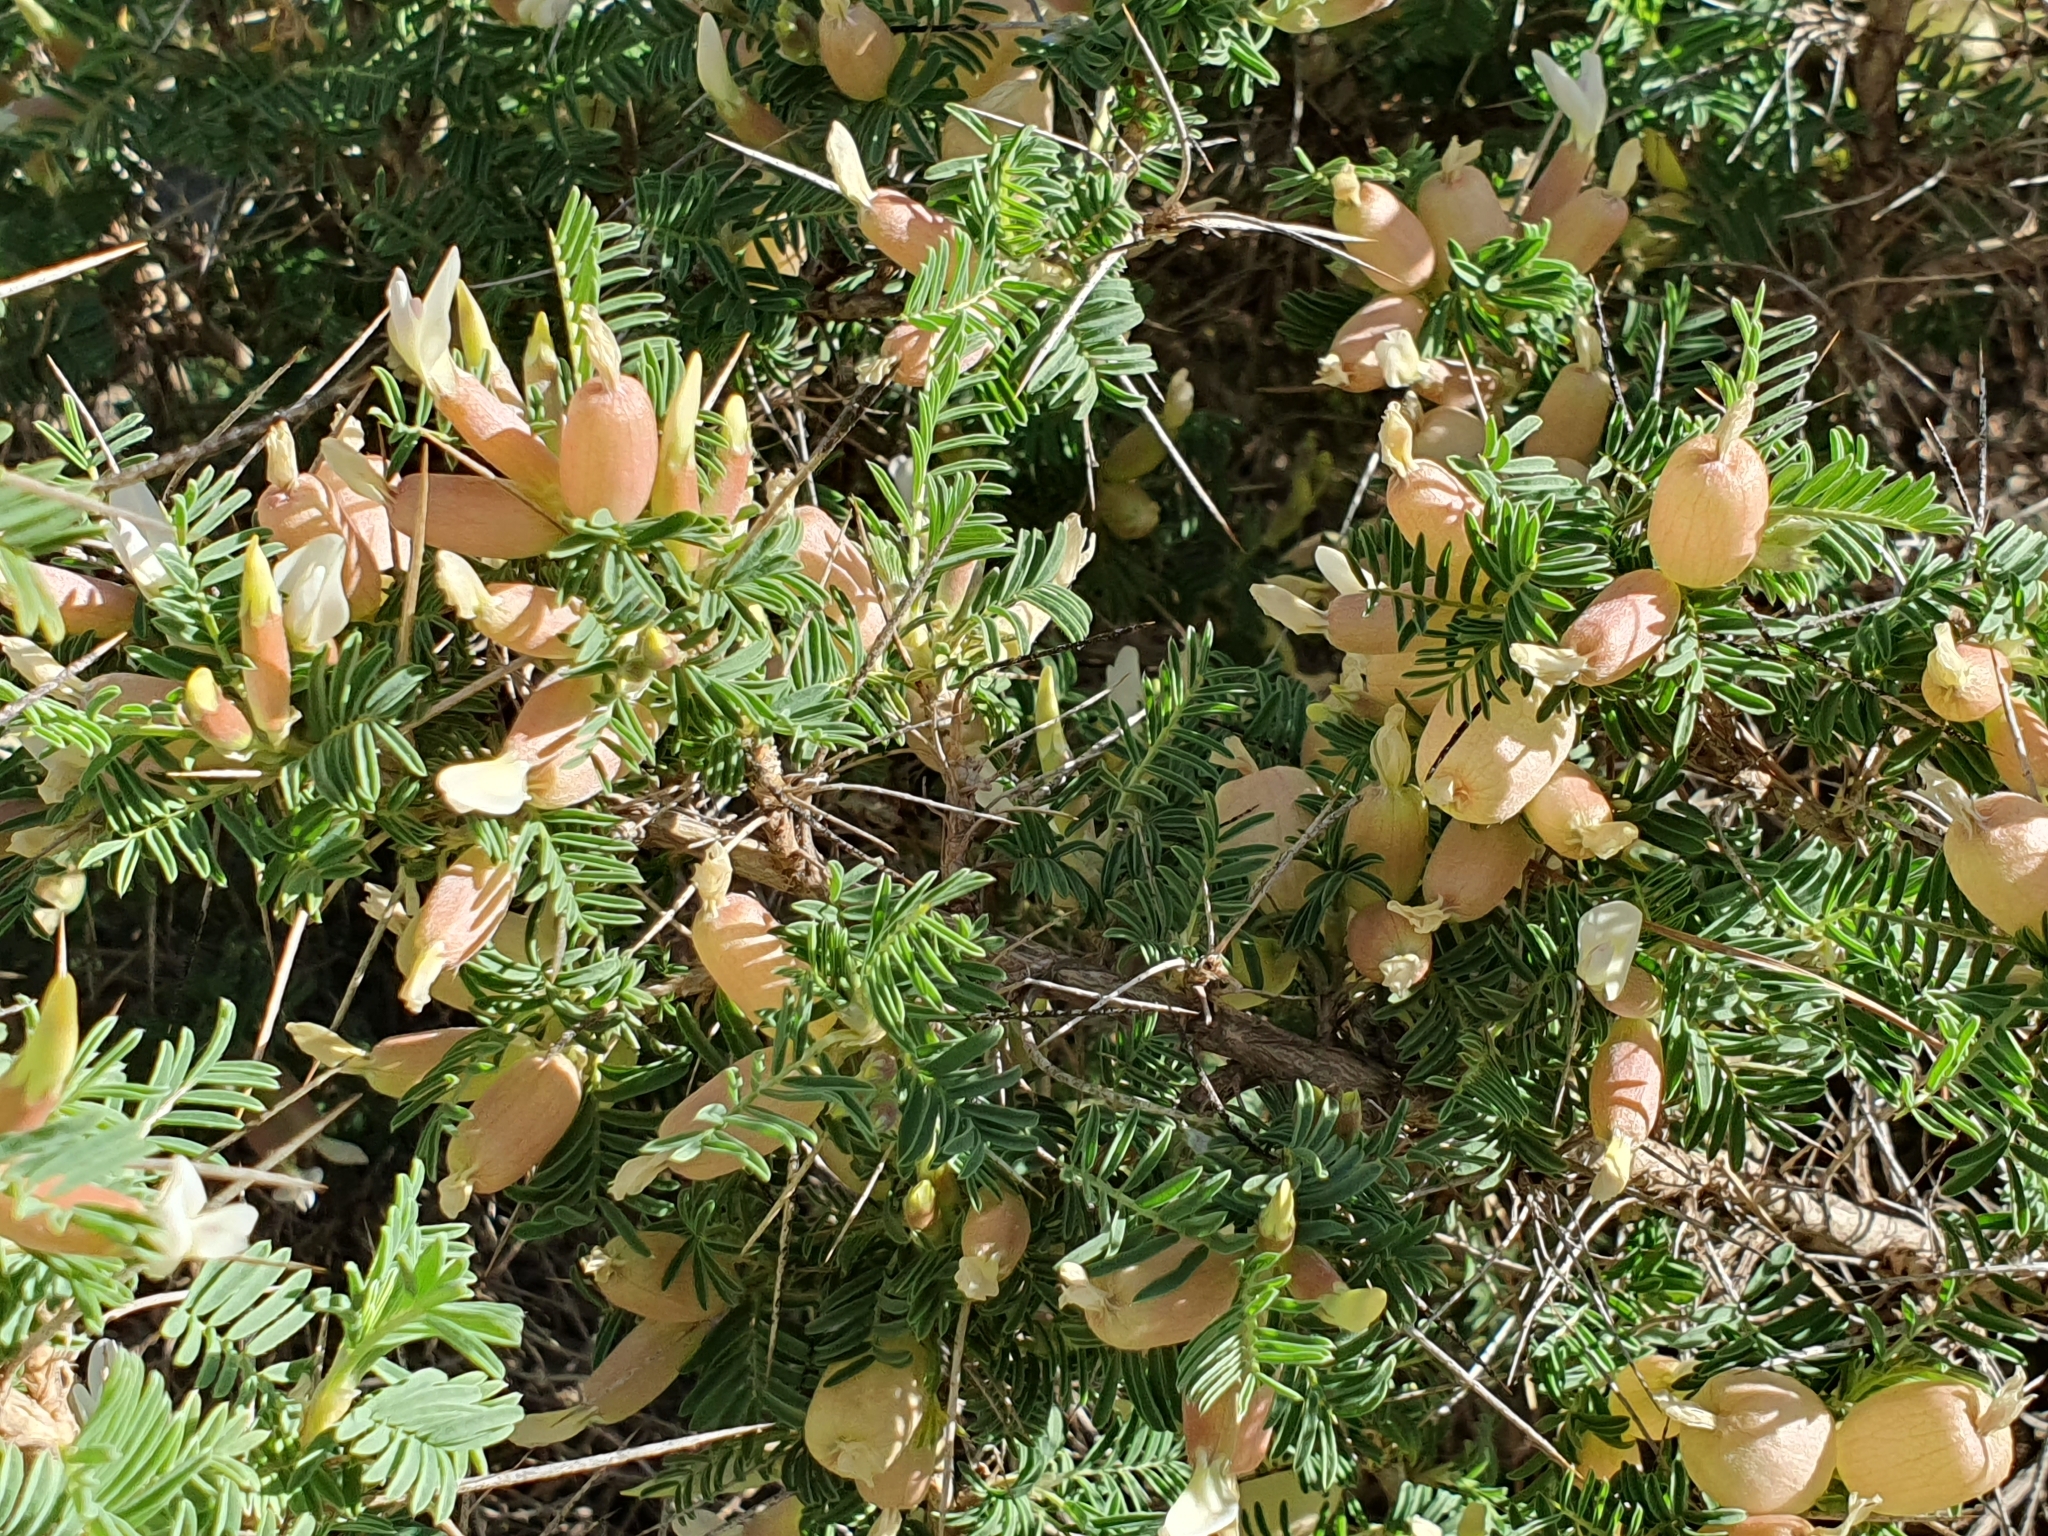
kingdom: Plantae
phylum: Tracheophyta
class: Magnoliopsida
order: Fabales
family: Fabaceae
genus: Astragalus
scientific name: Astragalus armatus
